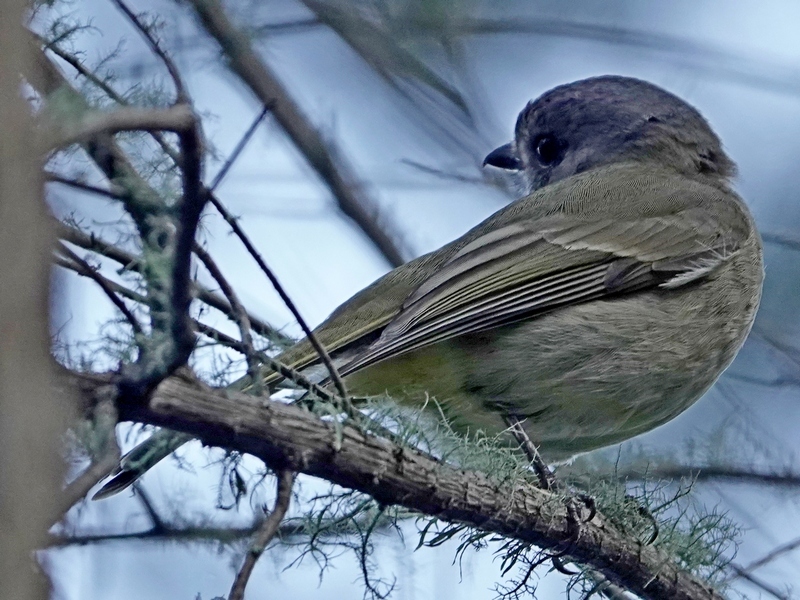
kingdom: Animalia
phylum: Chordata
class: Aves
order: Passeriformes
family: Pachycephalidae
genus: Pachycephala
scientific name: Pachycephala pectoralis
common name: Australian golden whistler
